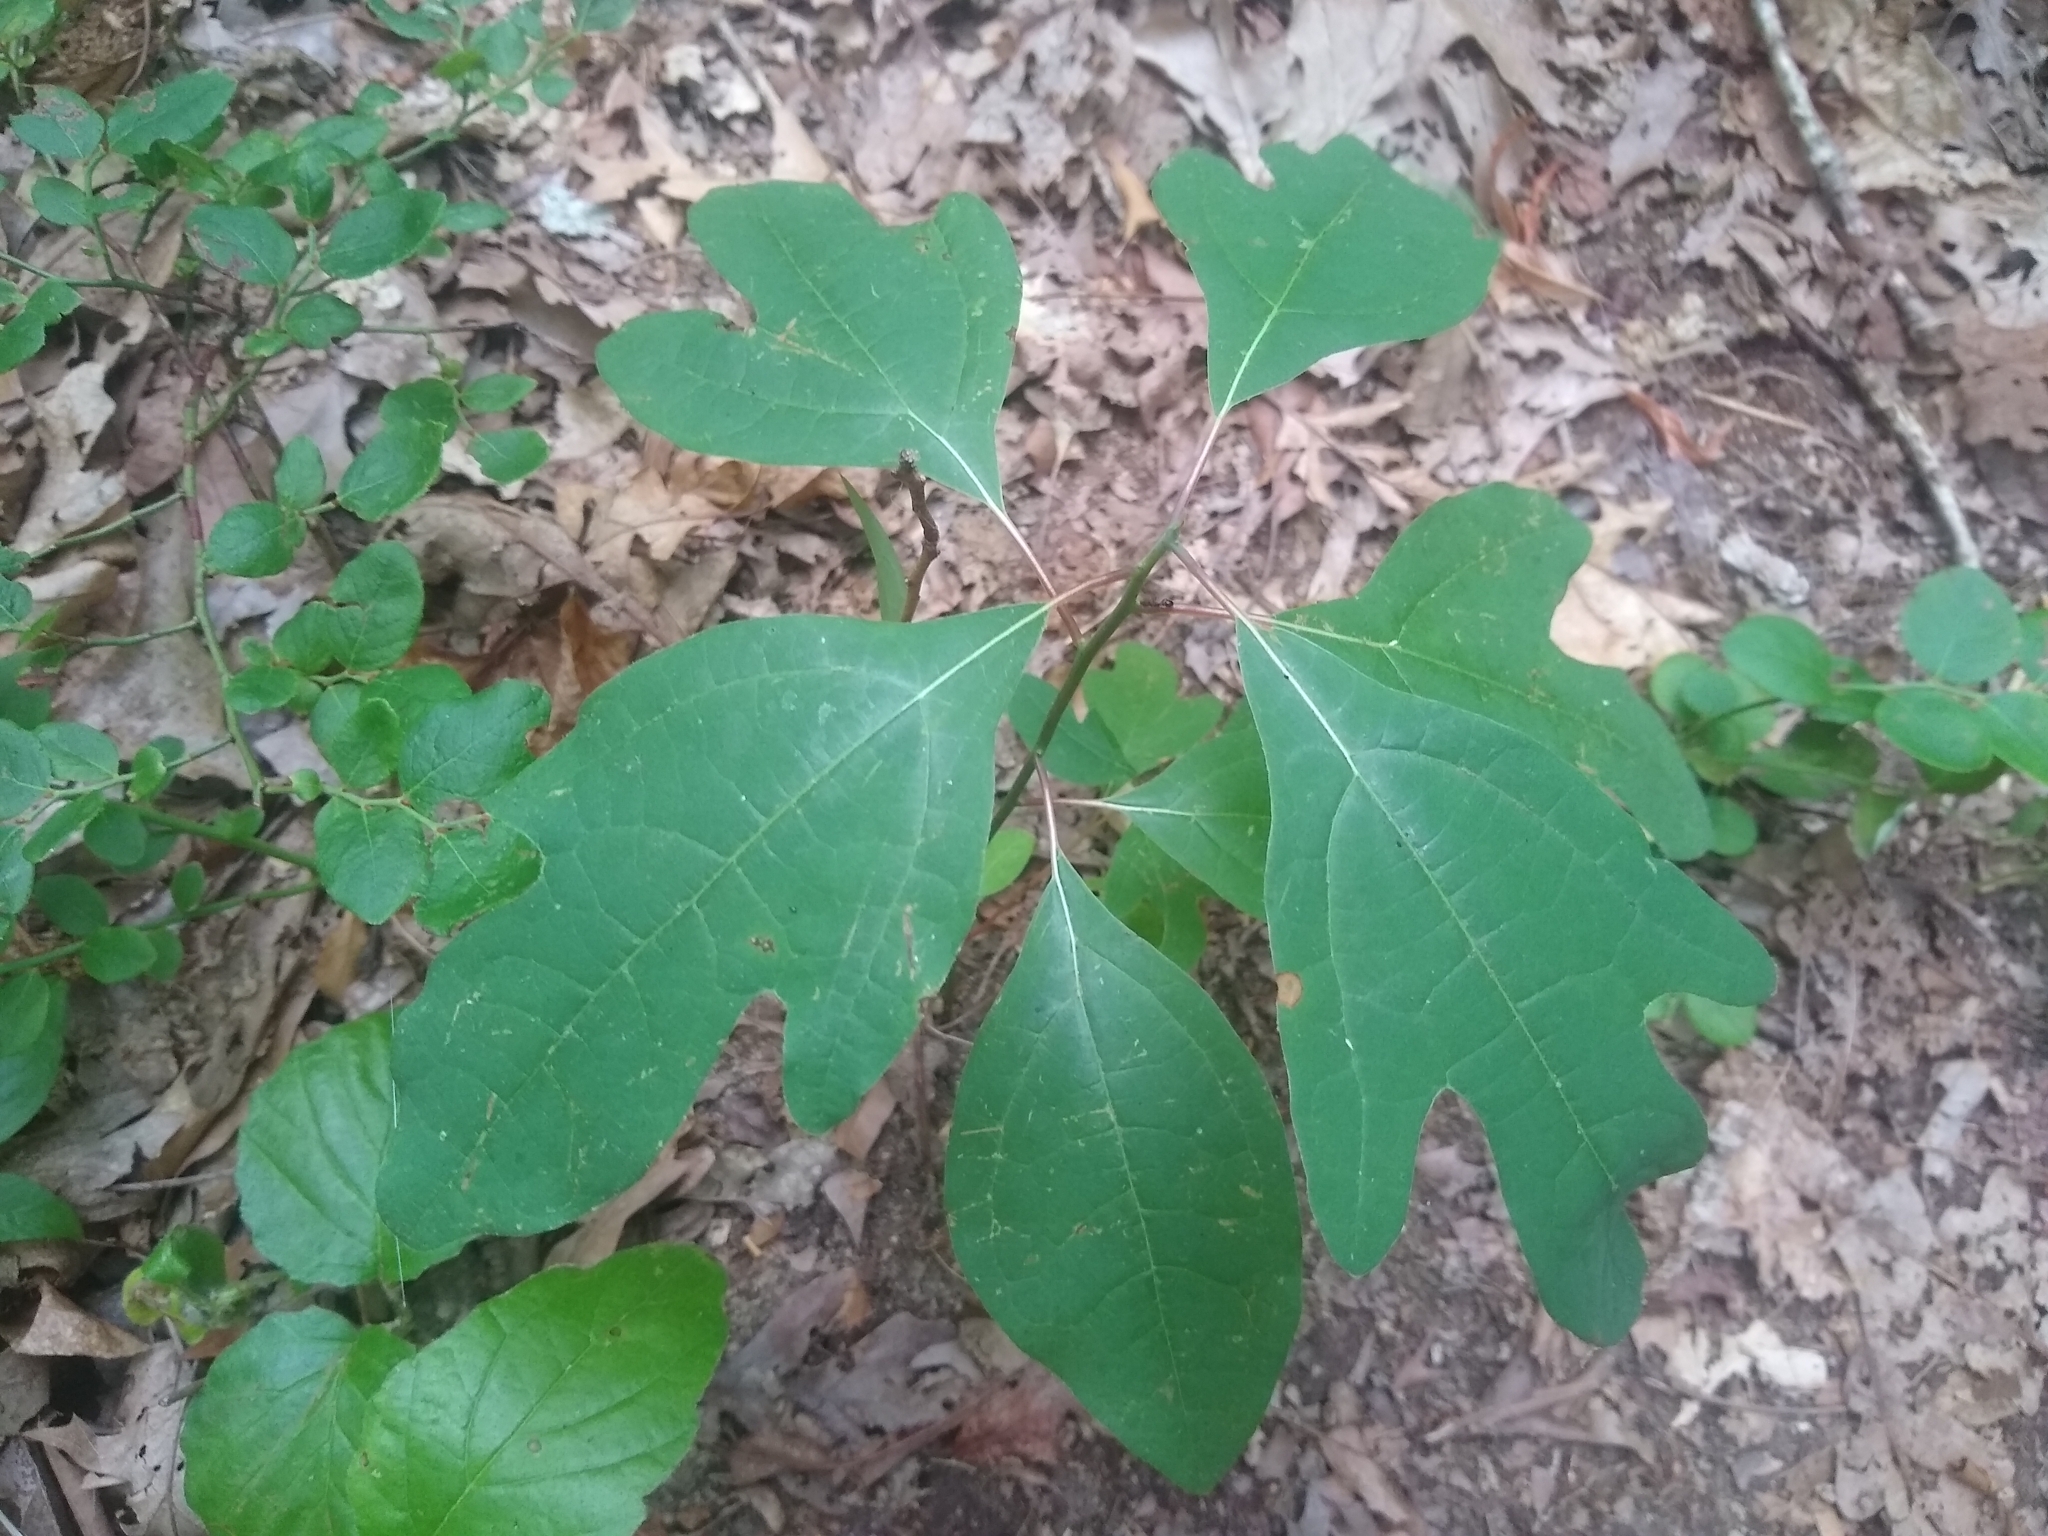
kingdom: Plantae
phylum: Tracheophyta
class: Magnoliopsida
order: Laurales
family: Lauraceae
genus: Sassafras
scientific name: Sassafras albidum
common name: Sassafras
